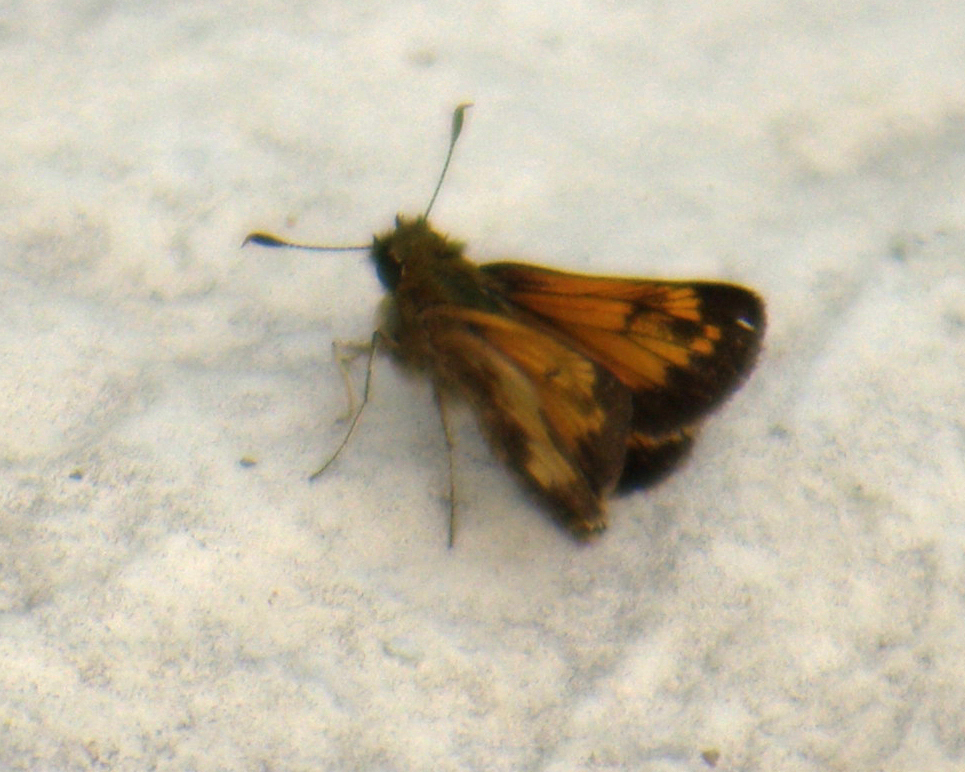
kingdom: Animalia
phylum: Arthropoda
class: Insecta
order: Lepidoptera
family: Hesperiidae
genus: Lon
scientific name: Lon hobomok
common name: Hobomok skipper
